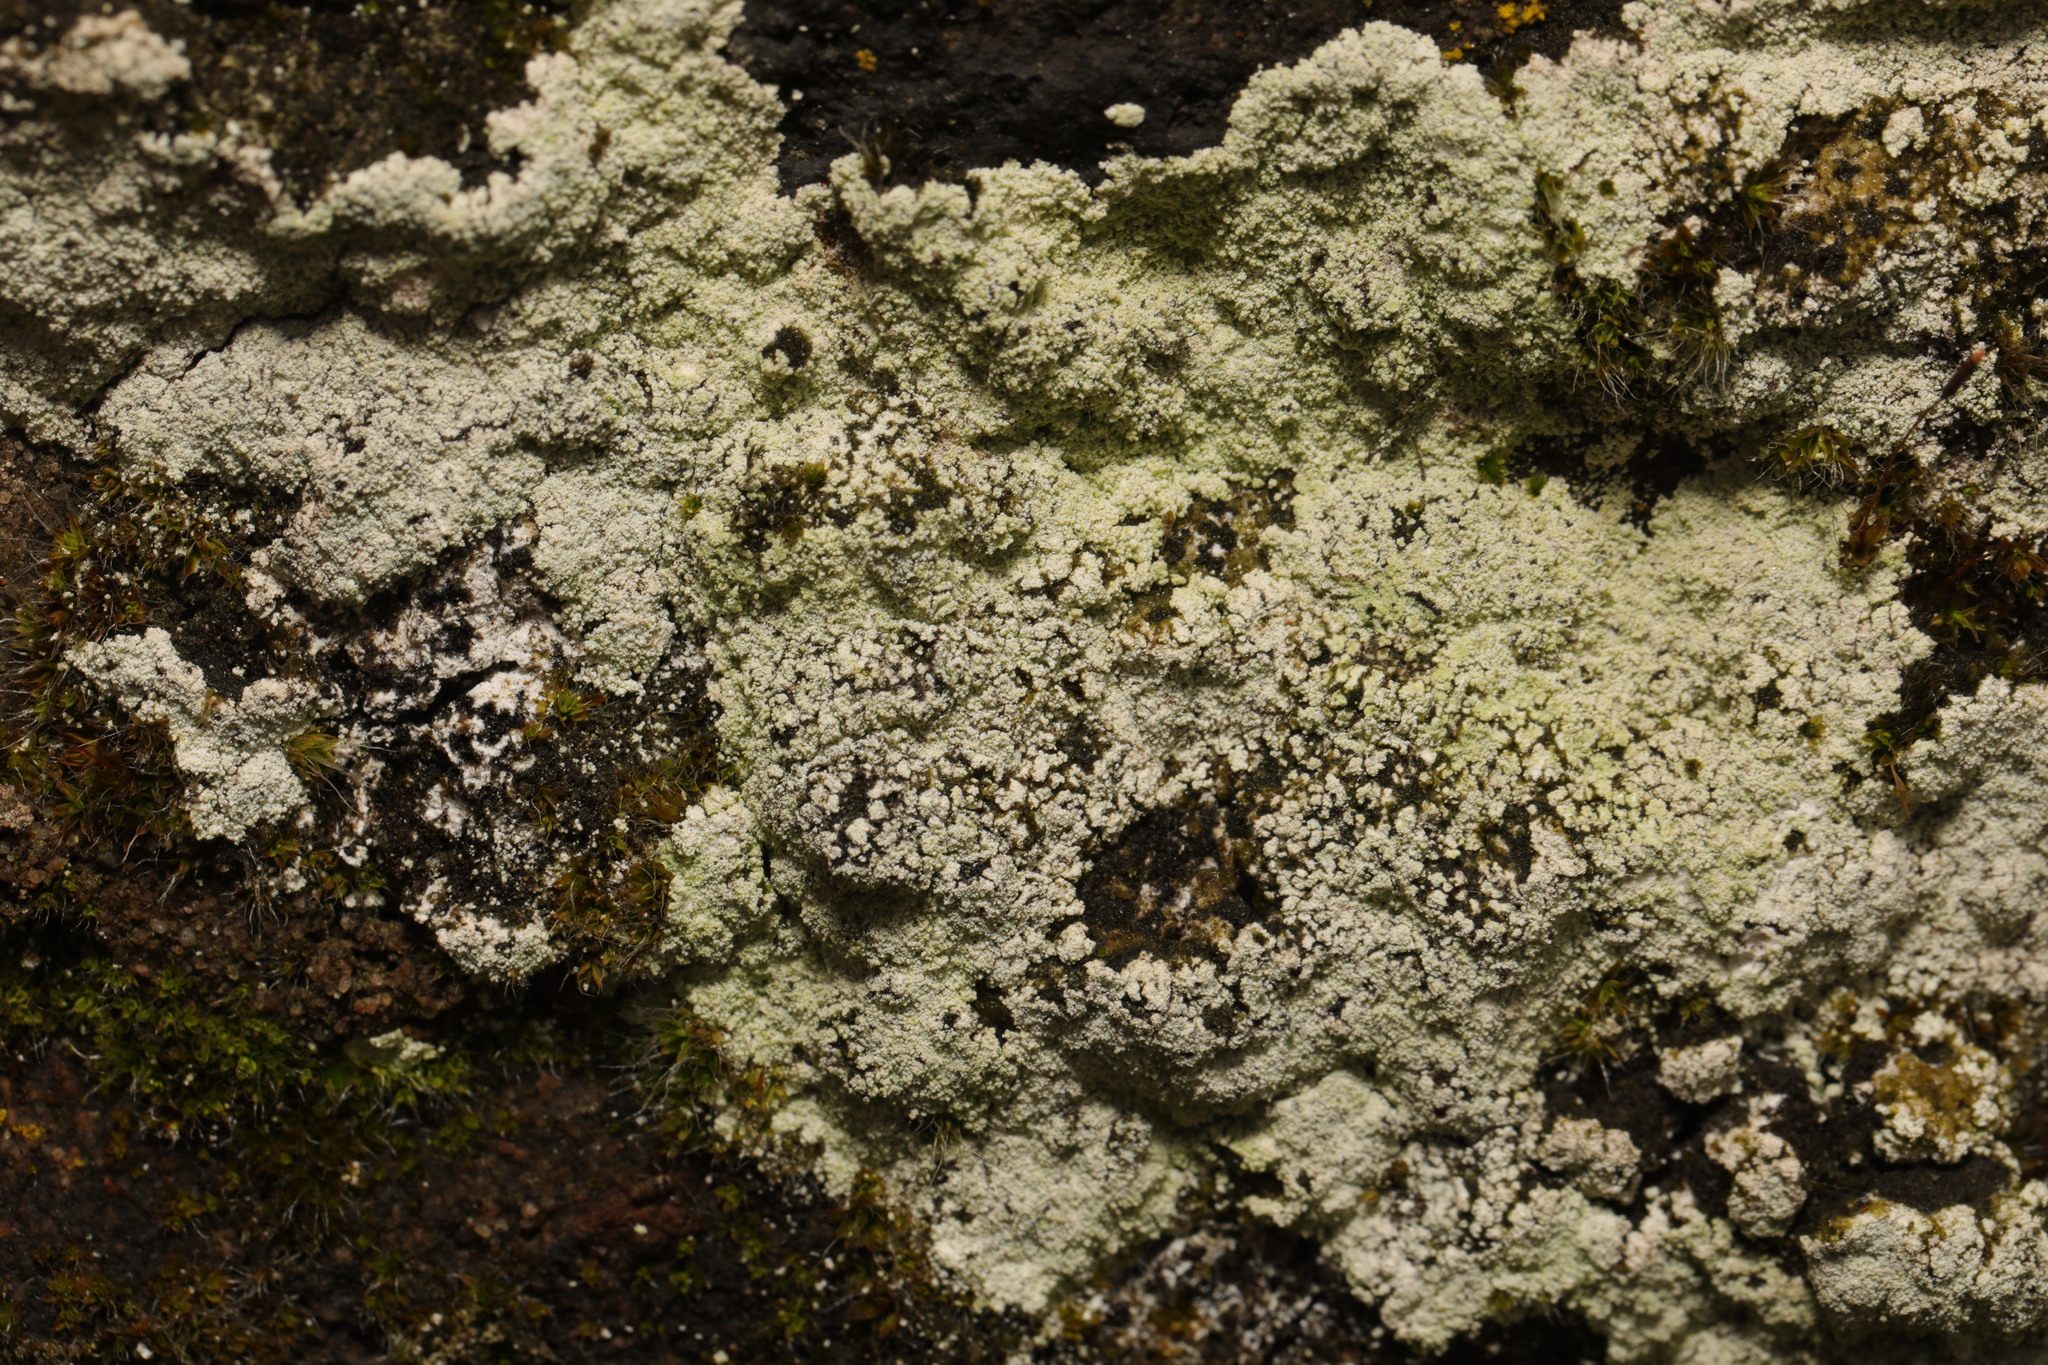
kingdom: Fungi
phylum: Ascomycota
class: Lecanoromycetes
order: Lecanorales
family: Stereocaulaceae
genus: Lepraria
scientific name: Lepraria
